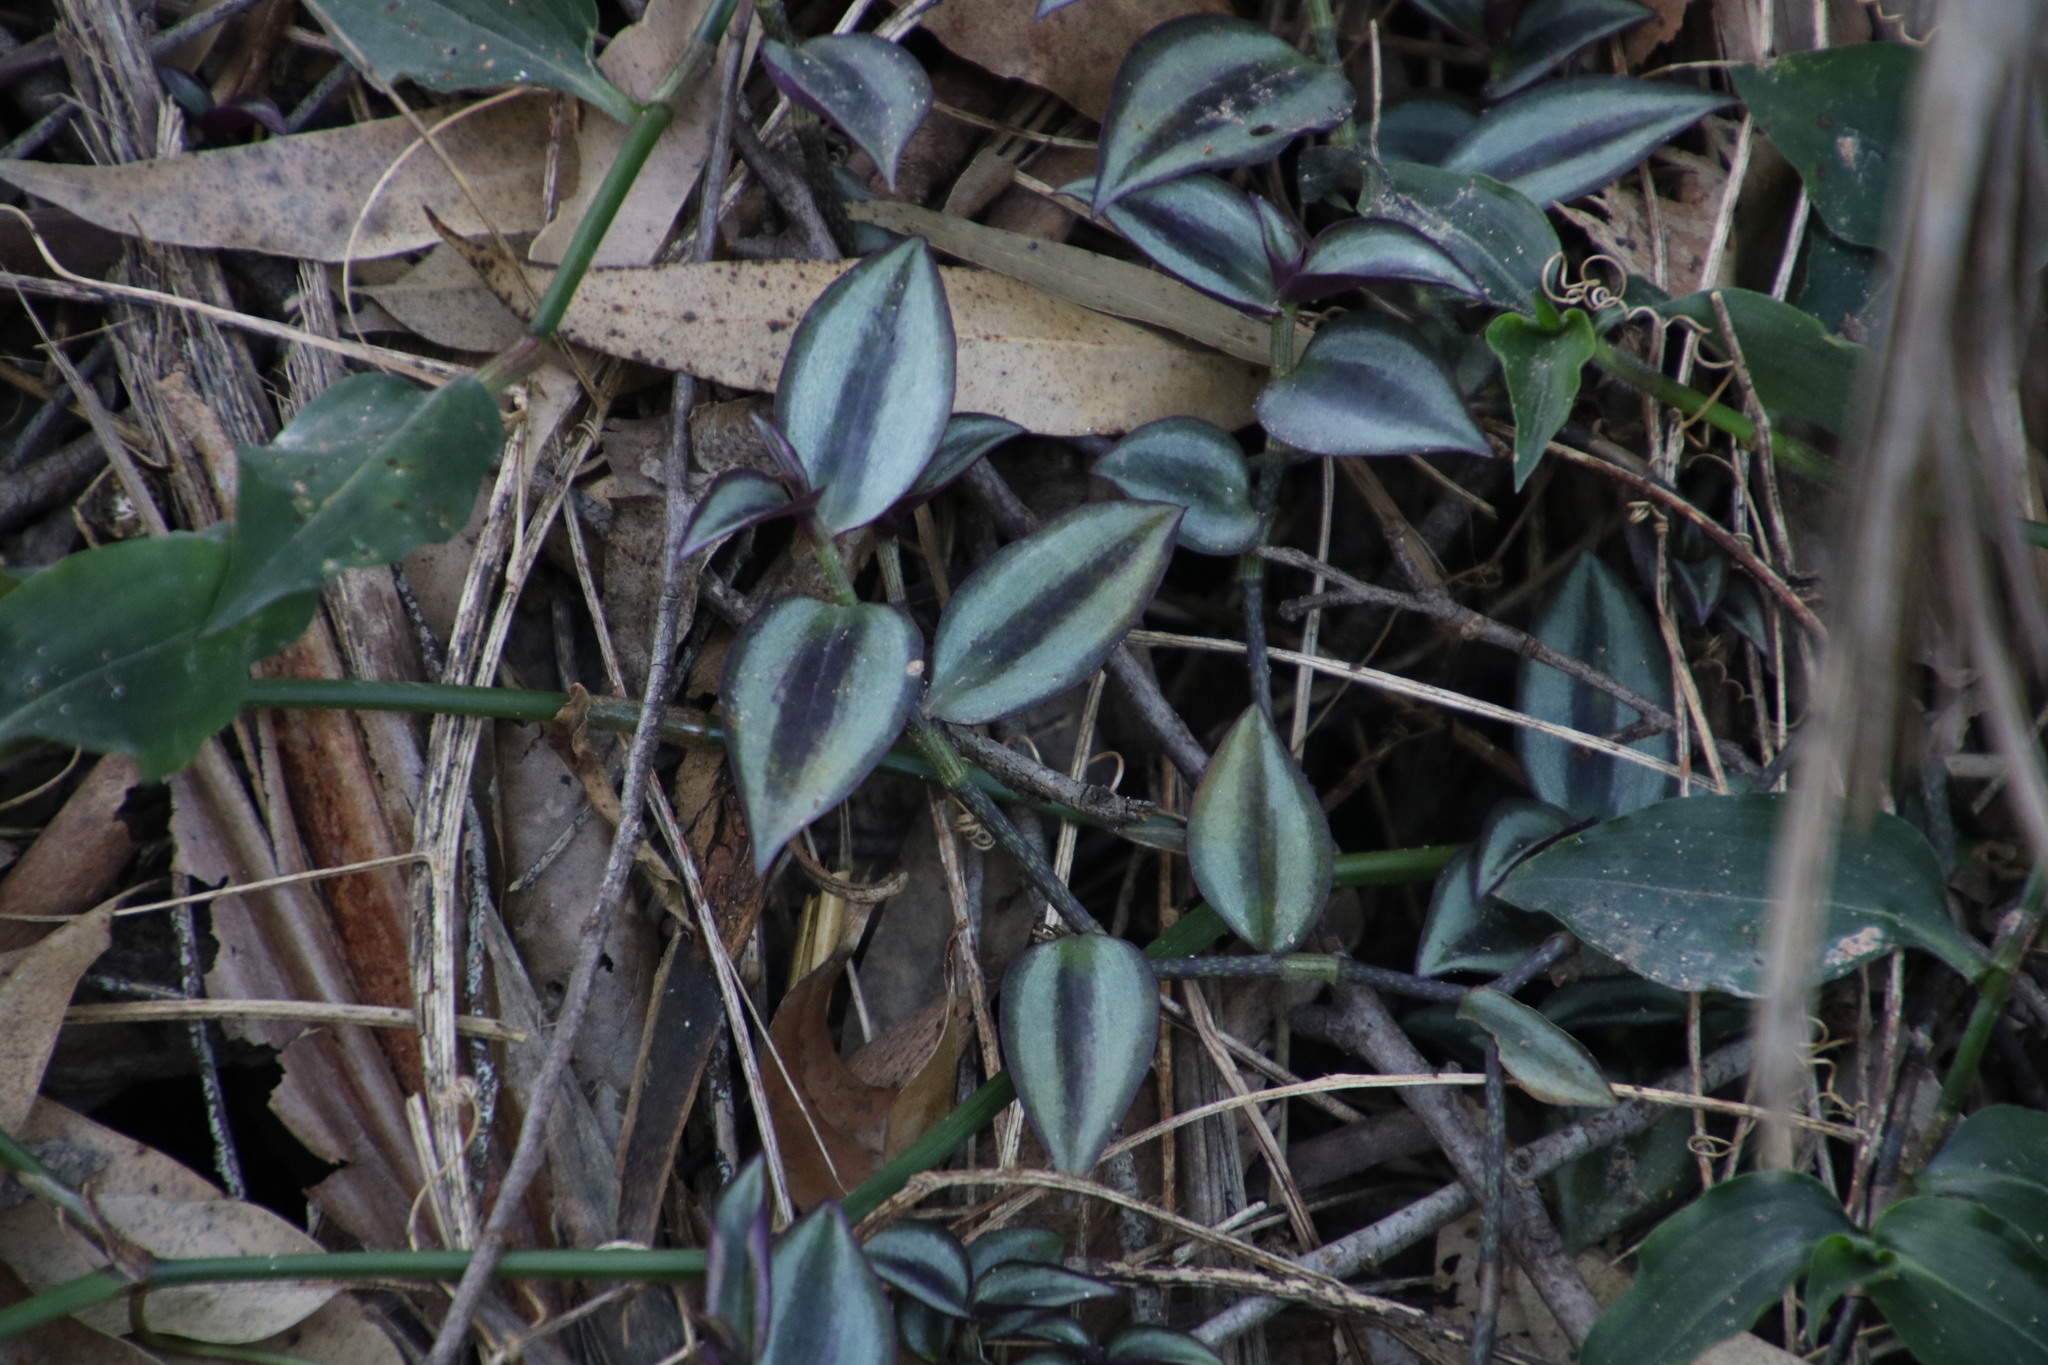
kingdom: Plantae
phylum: Tracheophyta
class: Liliopsida
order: Commelinales
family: Commelinaceae
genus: Tradescantia
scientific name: Tradescantia zebrina
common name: Inchplant
